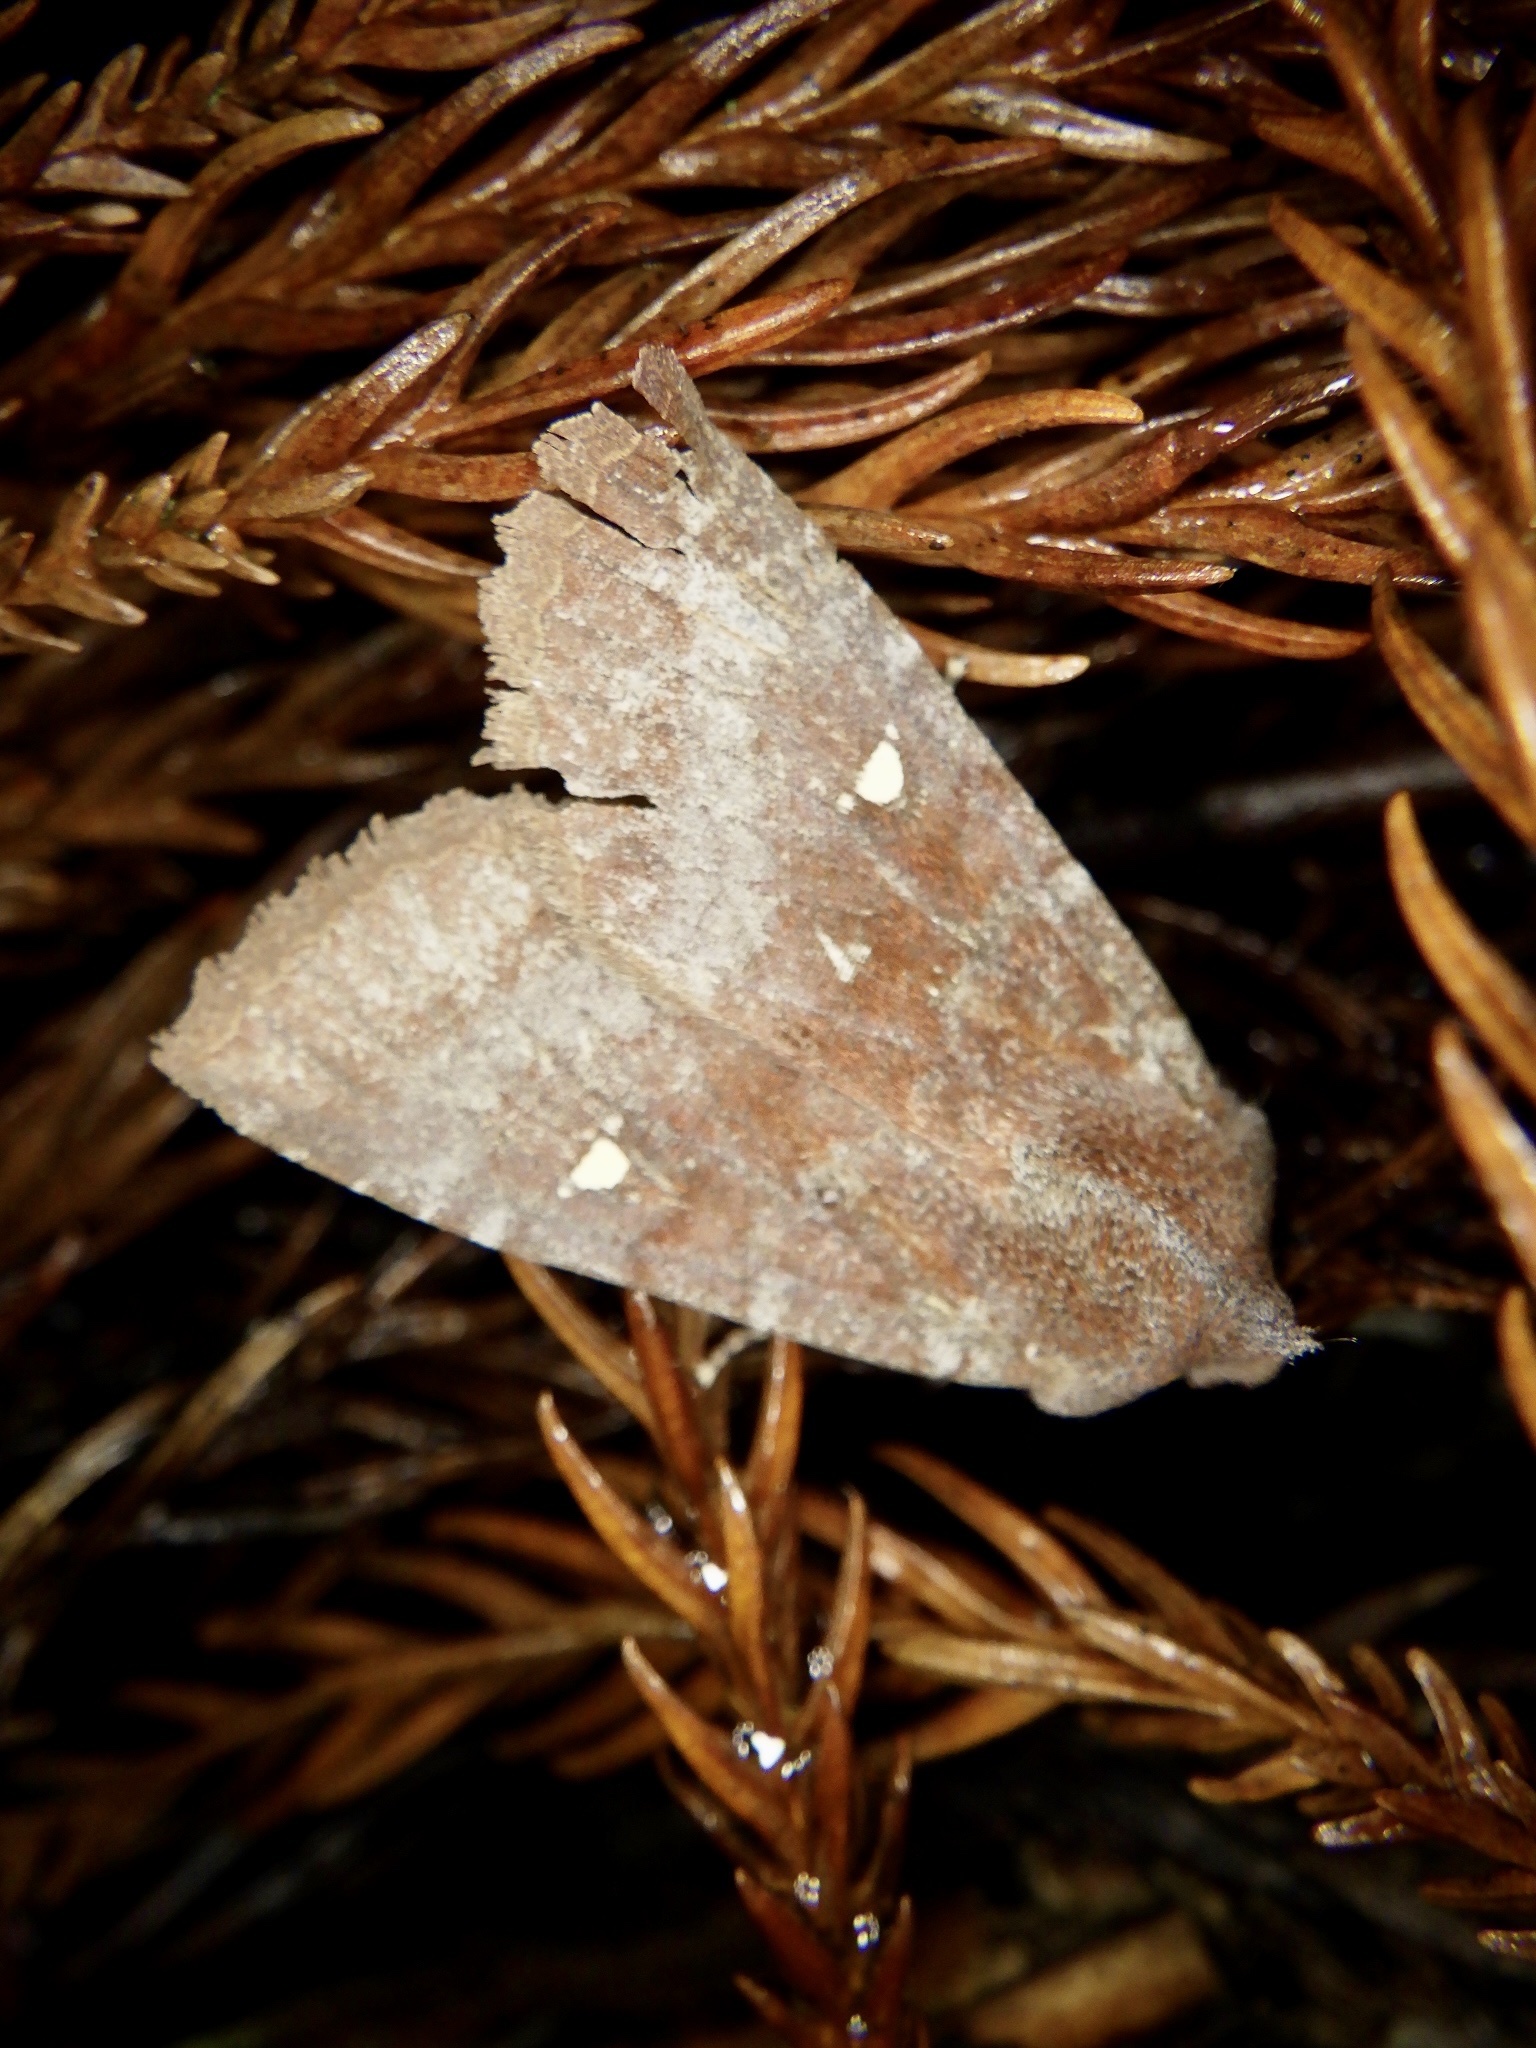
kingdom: Animalia
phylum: Arthropoda
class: Insecta
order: Lepidoptera
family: Noctuidae
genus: Eupsilia
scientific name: Eupsilia unipuncta
